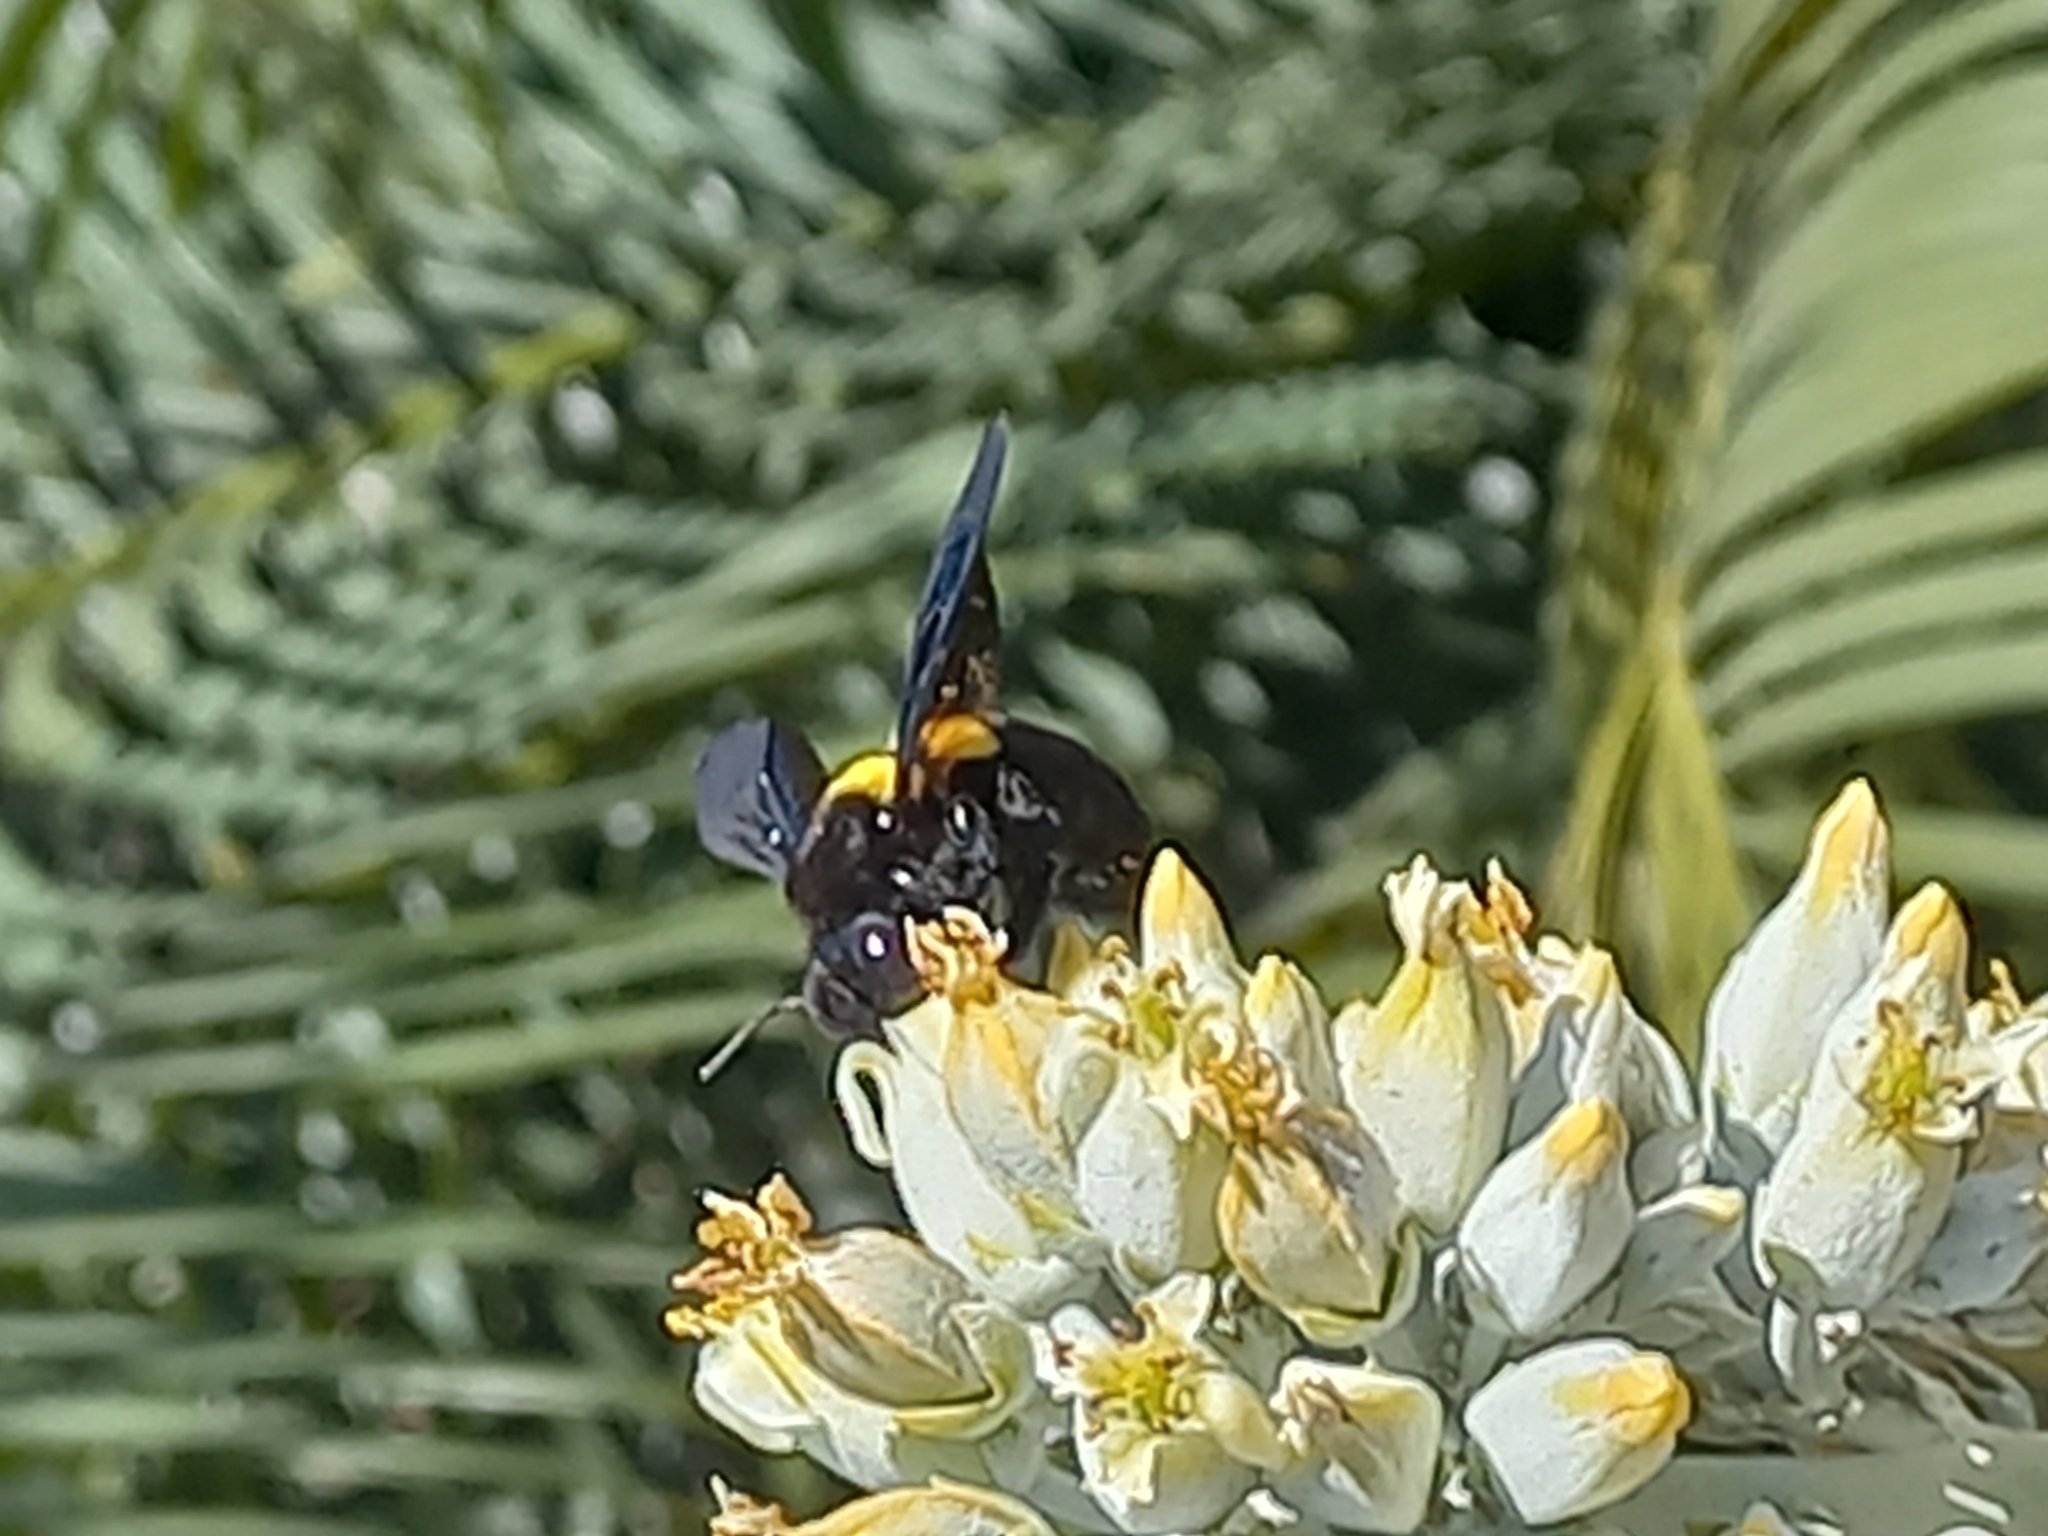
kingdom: Animalia
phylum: Arthropoda
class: Insecta
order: Hymenoptera
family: Apidae
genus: Xylocopa
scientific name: Xylocopa caffra
